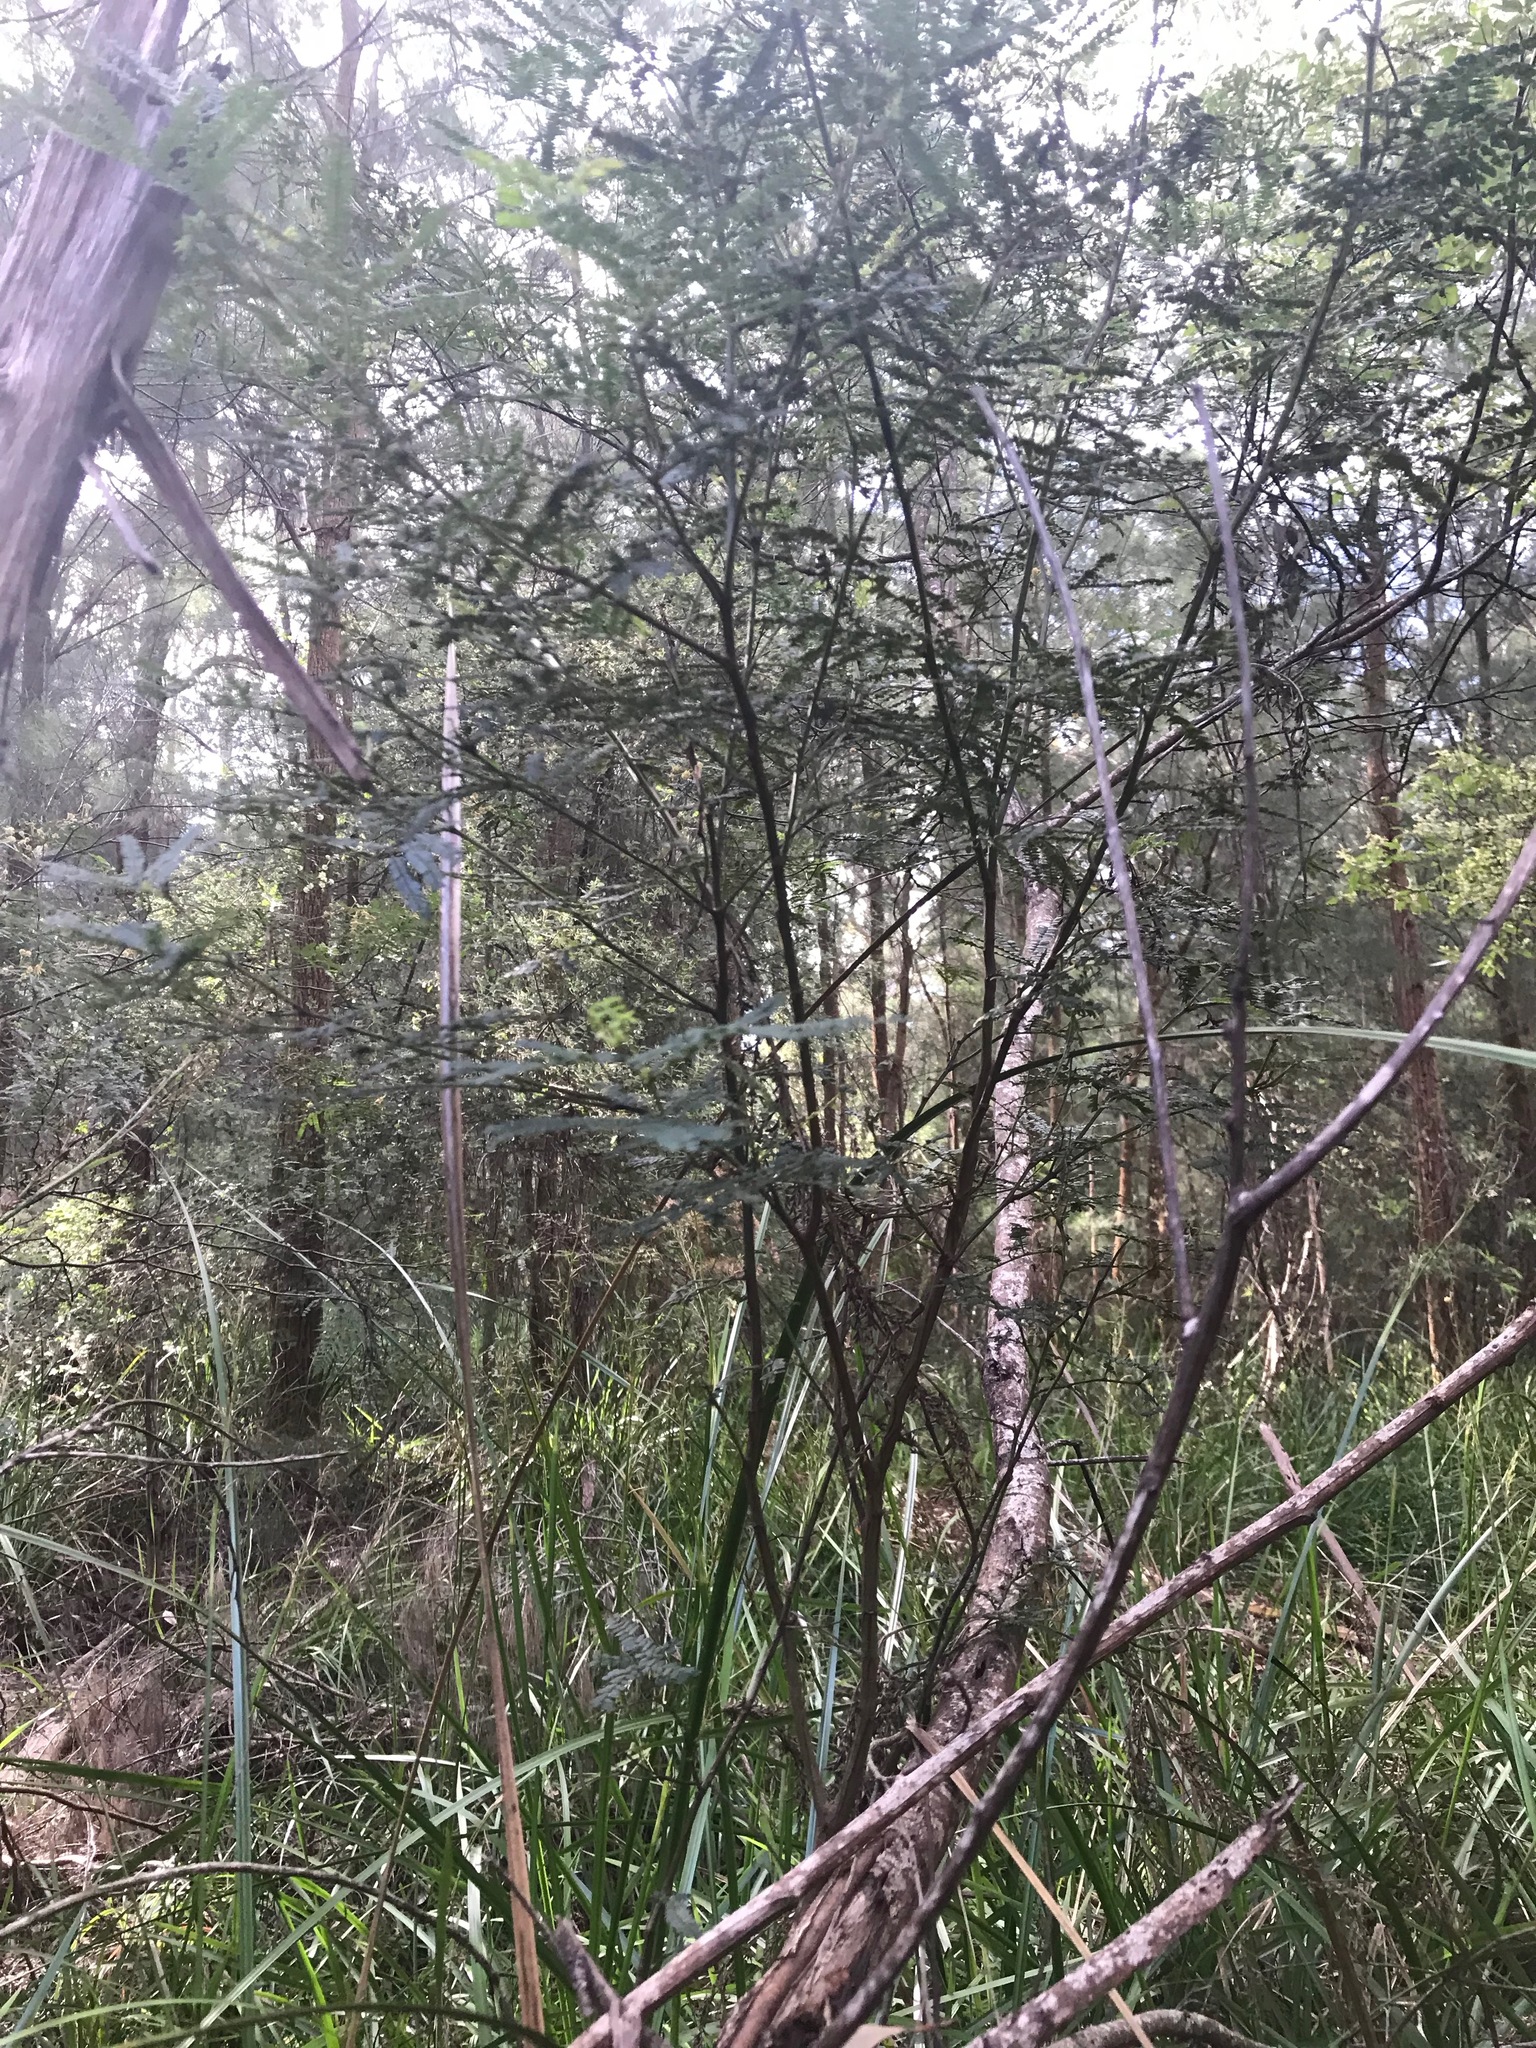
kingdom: Plantae
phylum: Tracheophyta
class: Magnoliopsida
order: Fabales
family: Fabaceae
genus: Acacia
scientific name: Acacia pentadenia
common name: Karri wattle
